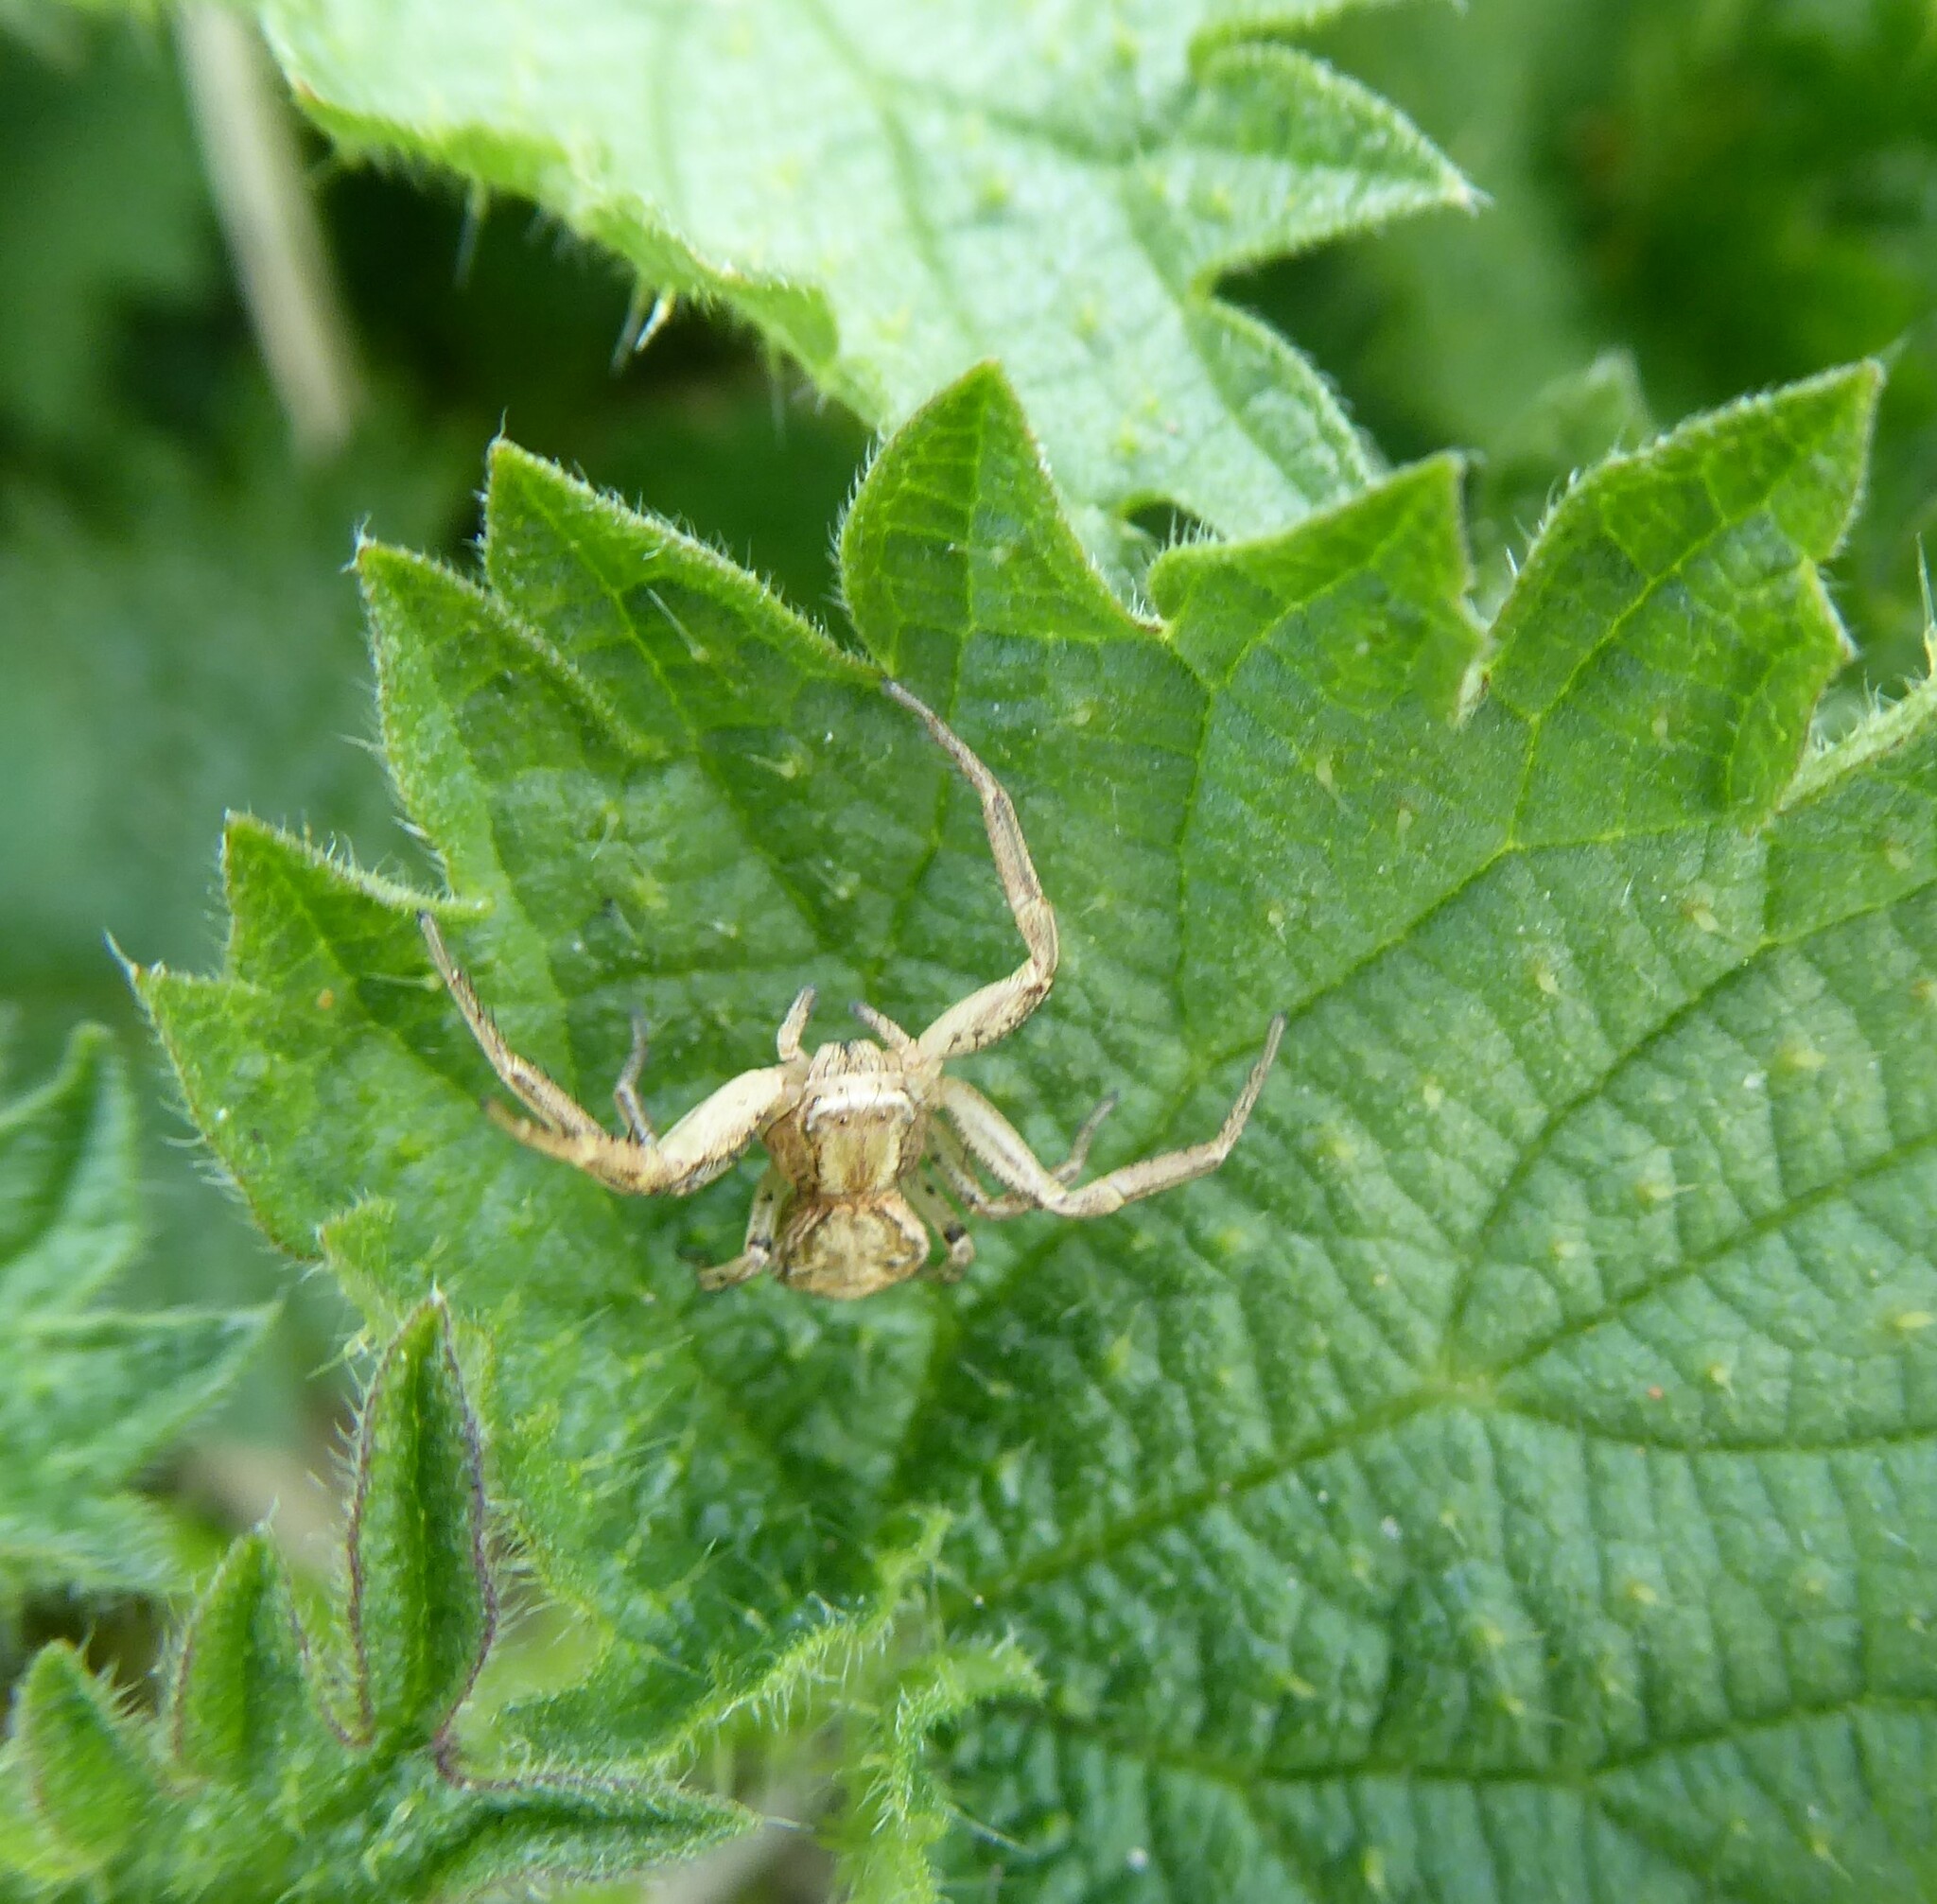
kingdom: Animalia
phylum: Arthropoda
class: Arachnida
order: Araneae
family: Thomisidae
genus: Xysticus
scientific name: Xysticus
